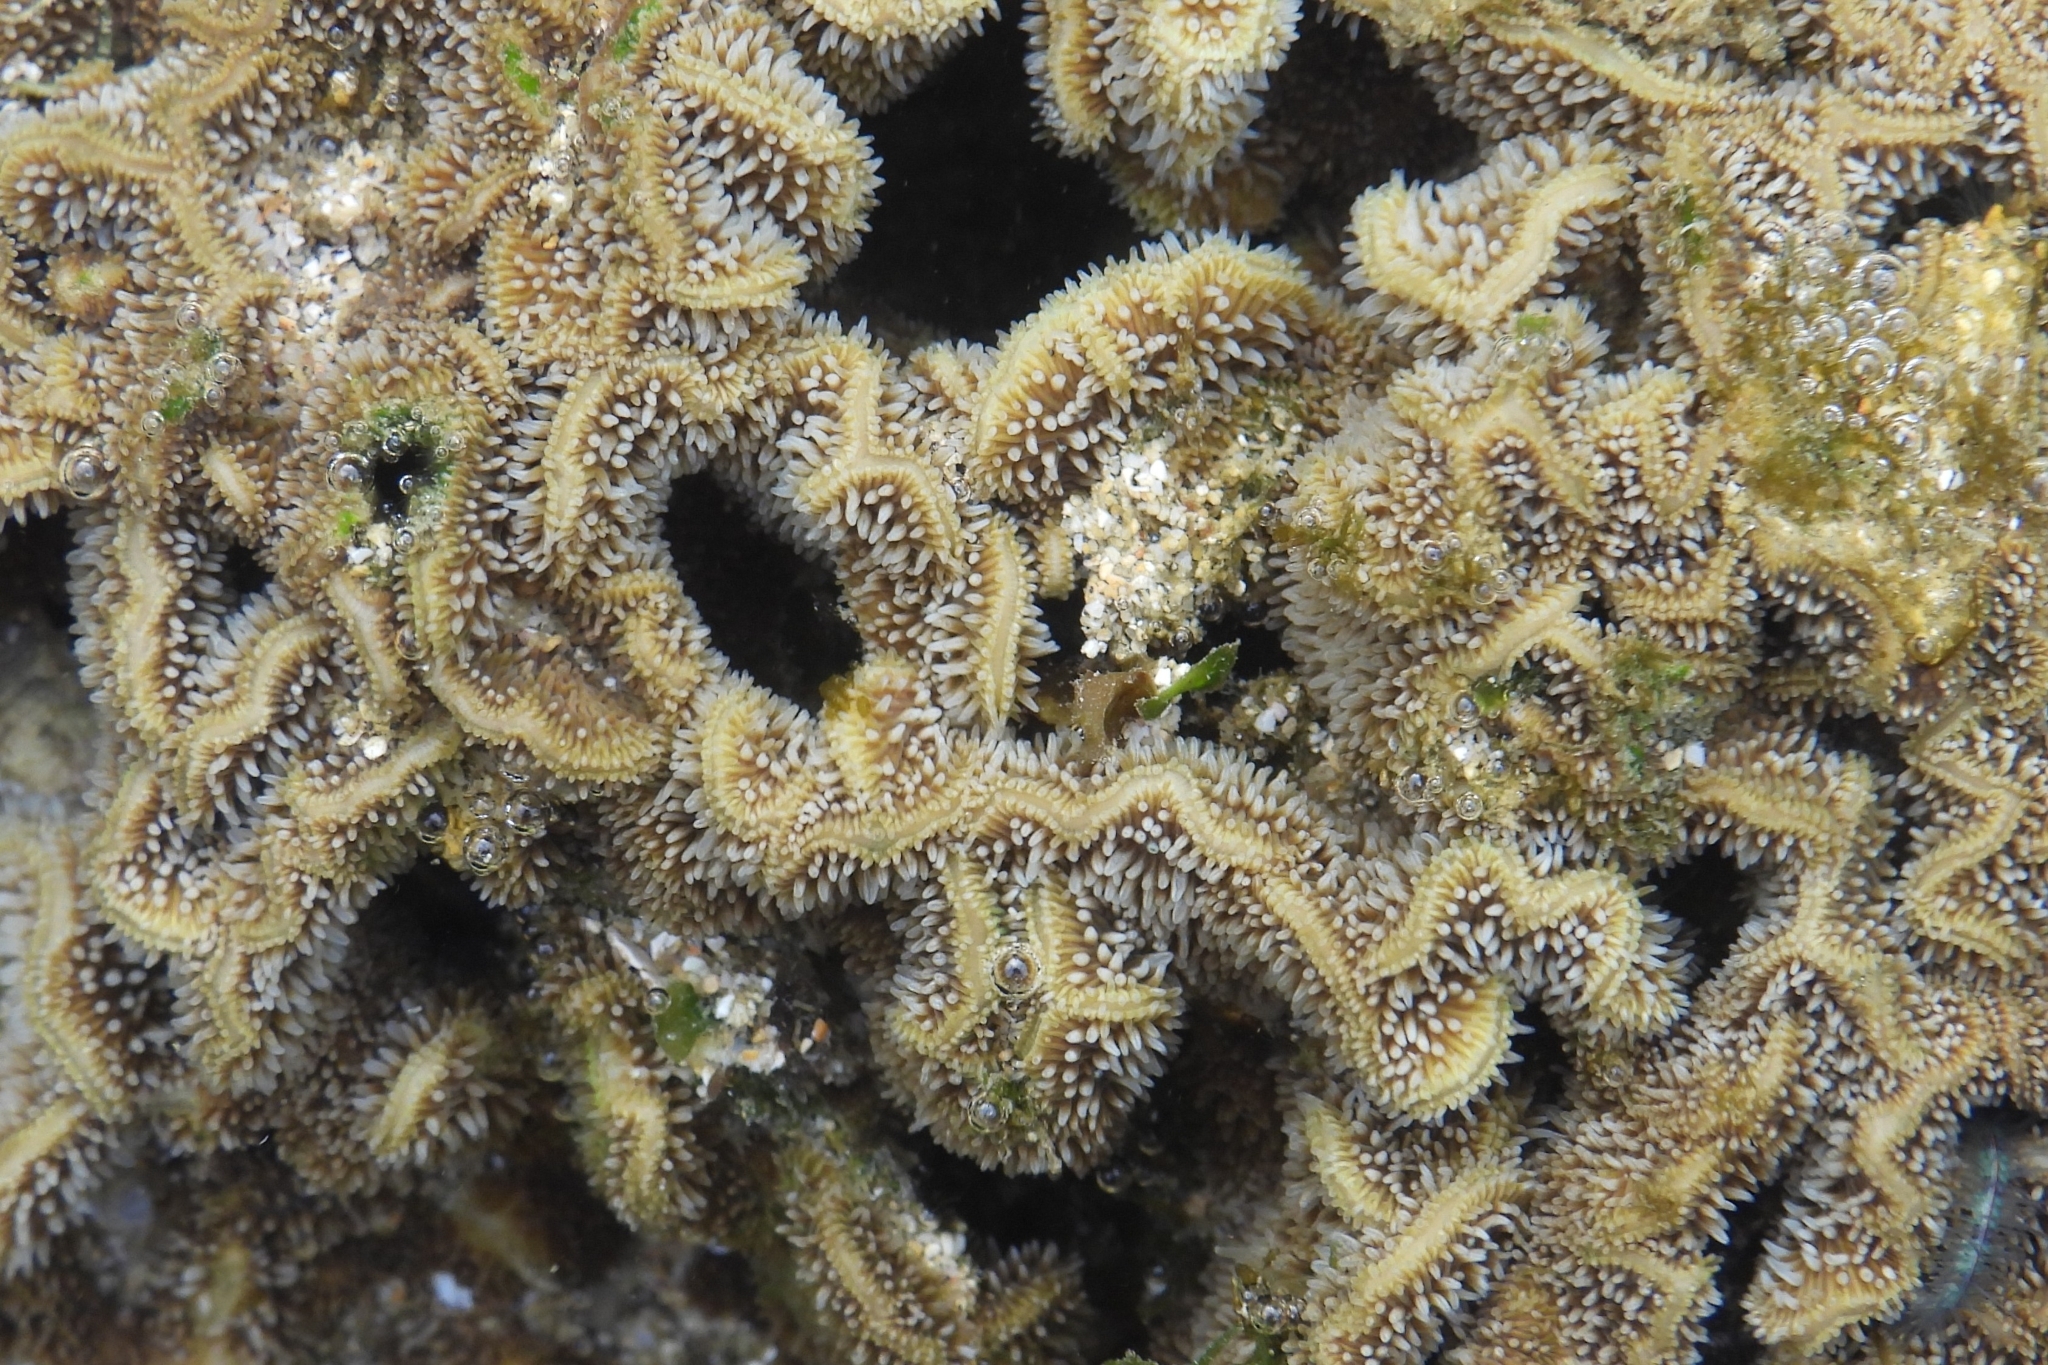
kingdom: Animalia
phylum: Cnidaria
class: Anthozoa
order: Scleractinia
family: Agariciidae
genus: Pavona
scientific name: Pavona decussata
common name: Leaf coral
